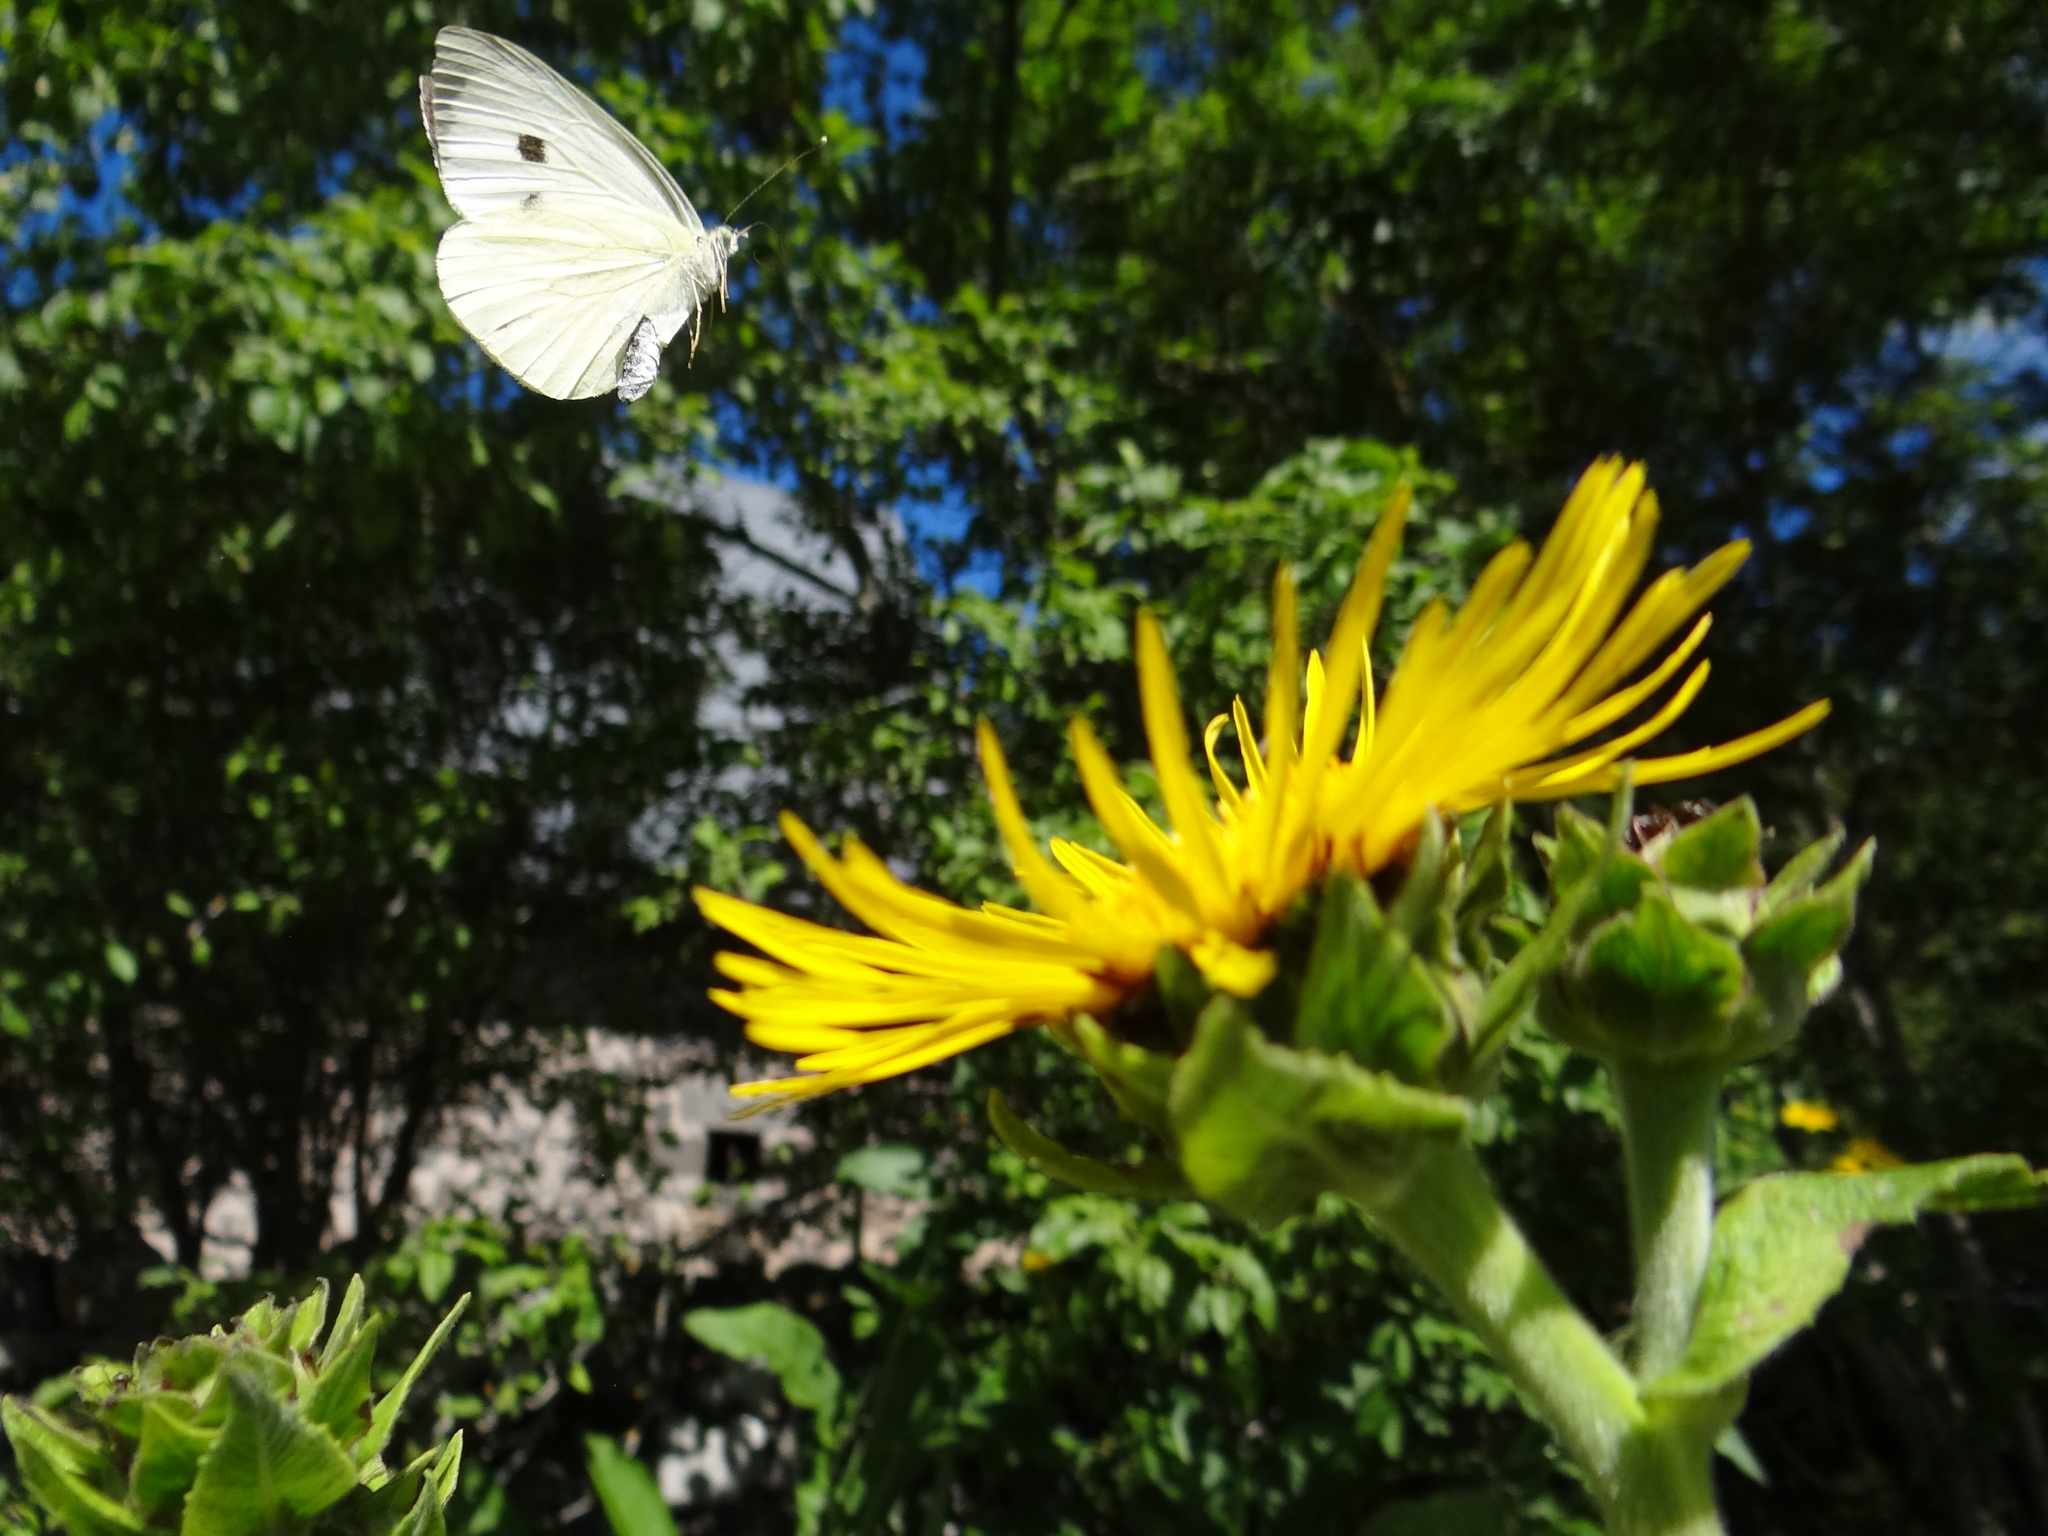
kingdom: Animalia
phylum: Arthropoda
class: Insecta
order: Lepidoptera
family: Pieridae
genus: Pieris
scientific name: Pieris brassicae
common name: Large white
